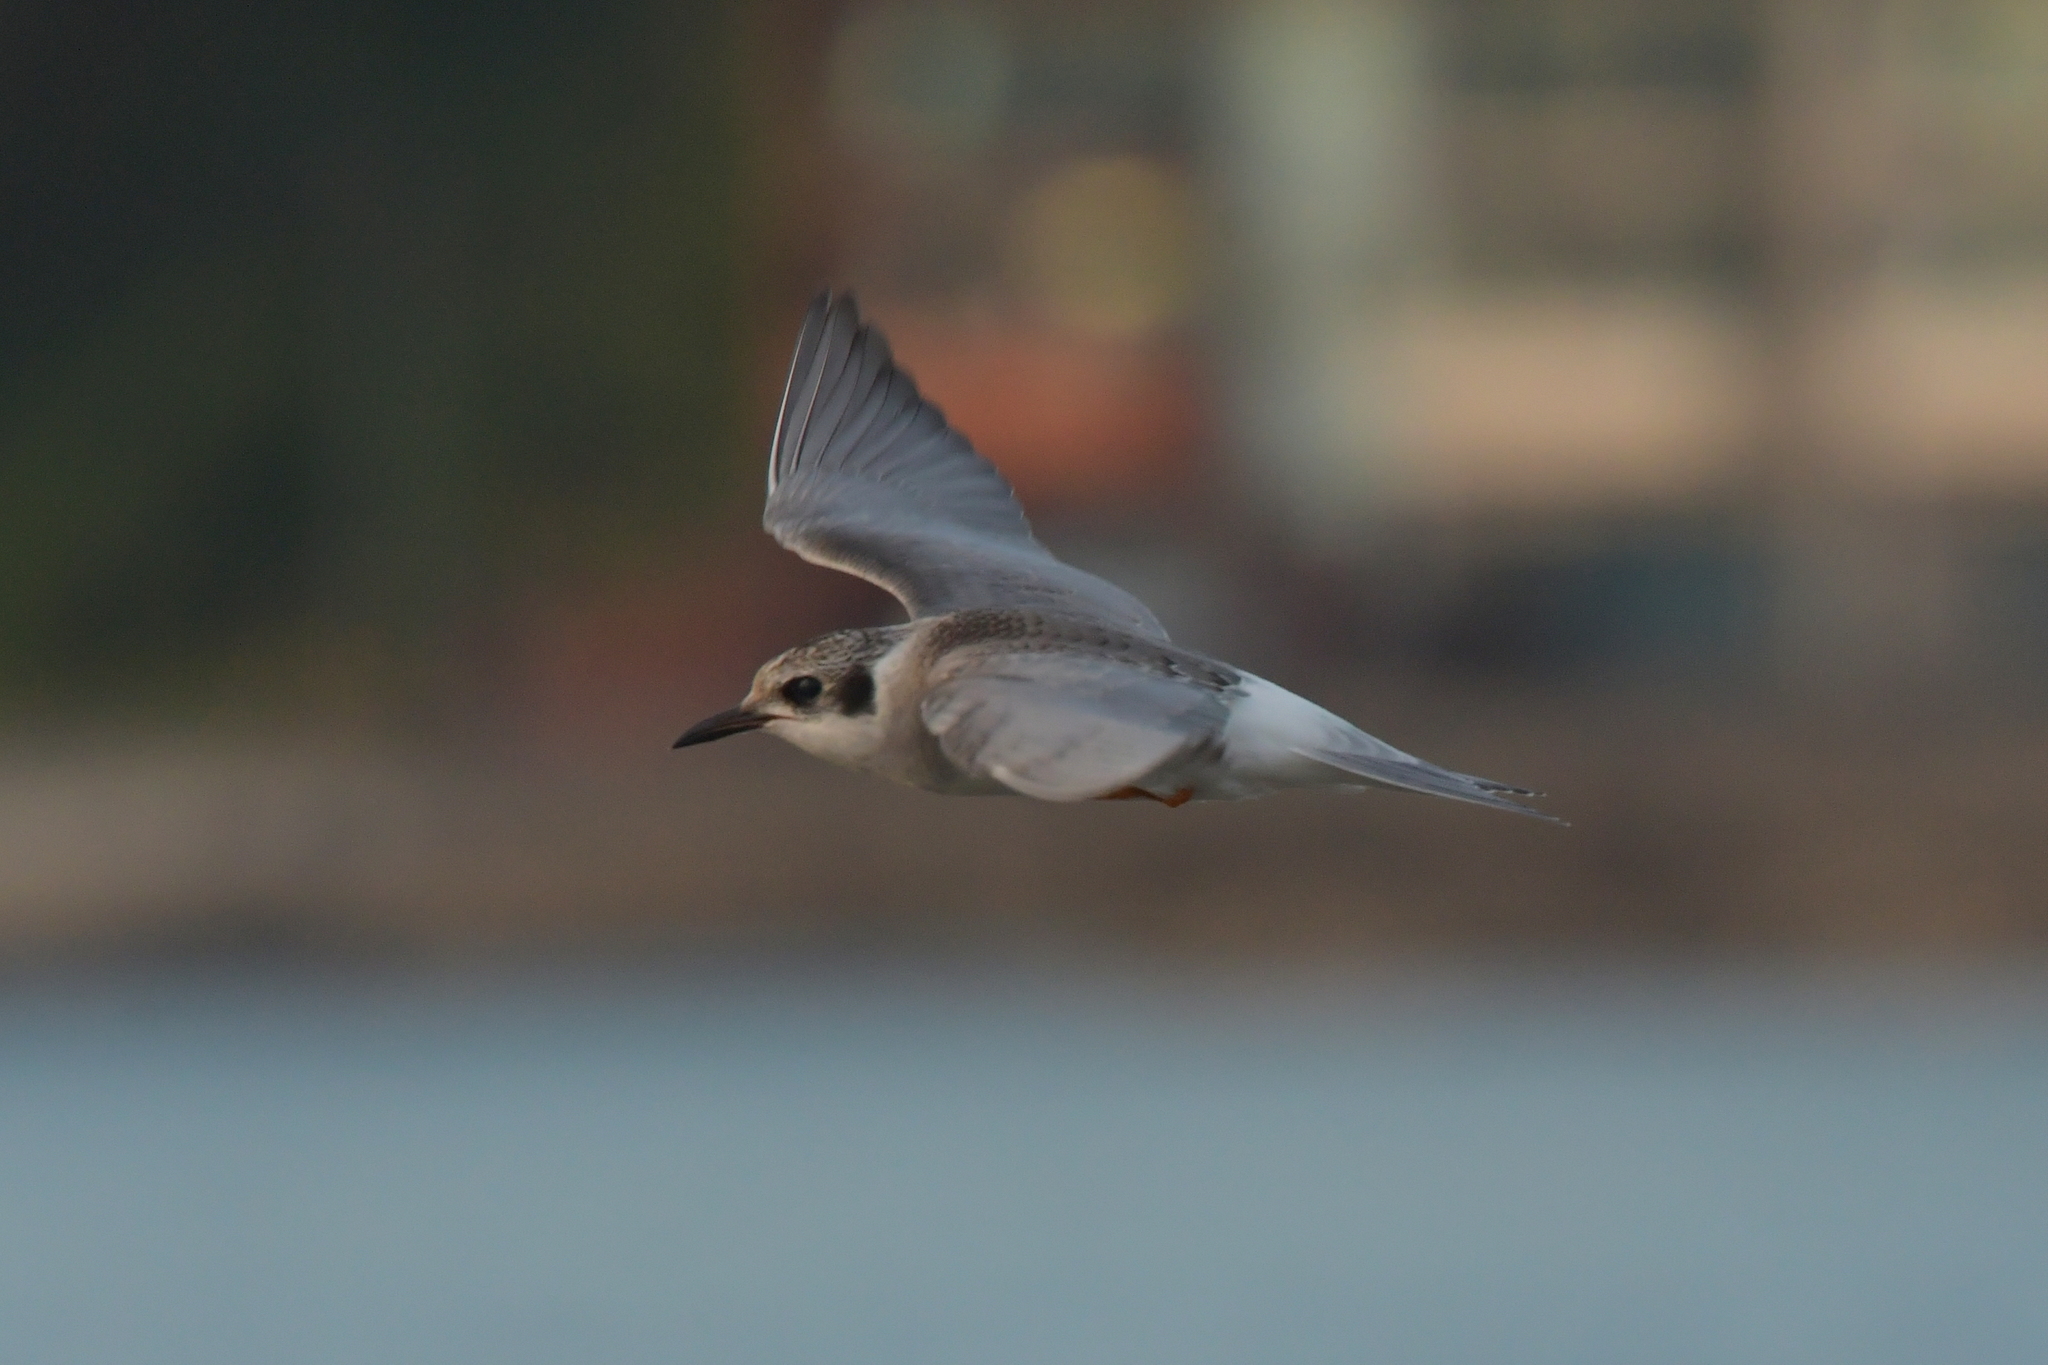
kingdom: Animalia
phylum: Chordata
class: Aves
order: Charadriiformes
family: Laridae
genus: Chlidonias
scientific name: Chlidonias albostriatus
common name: Black-fronted tern
